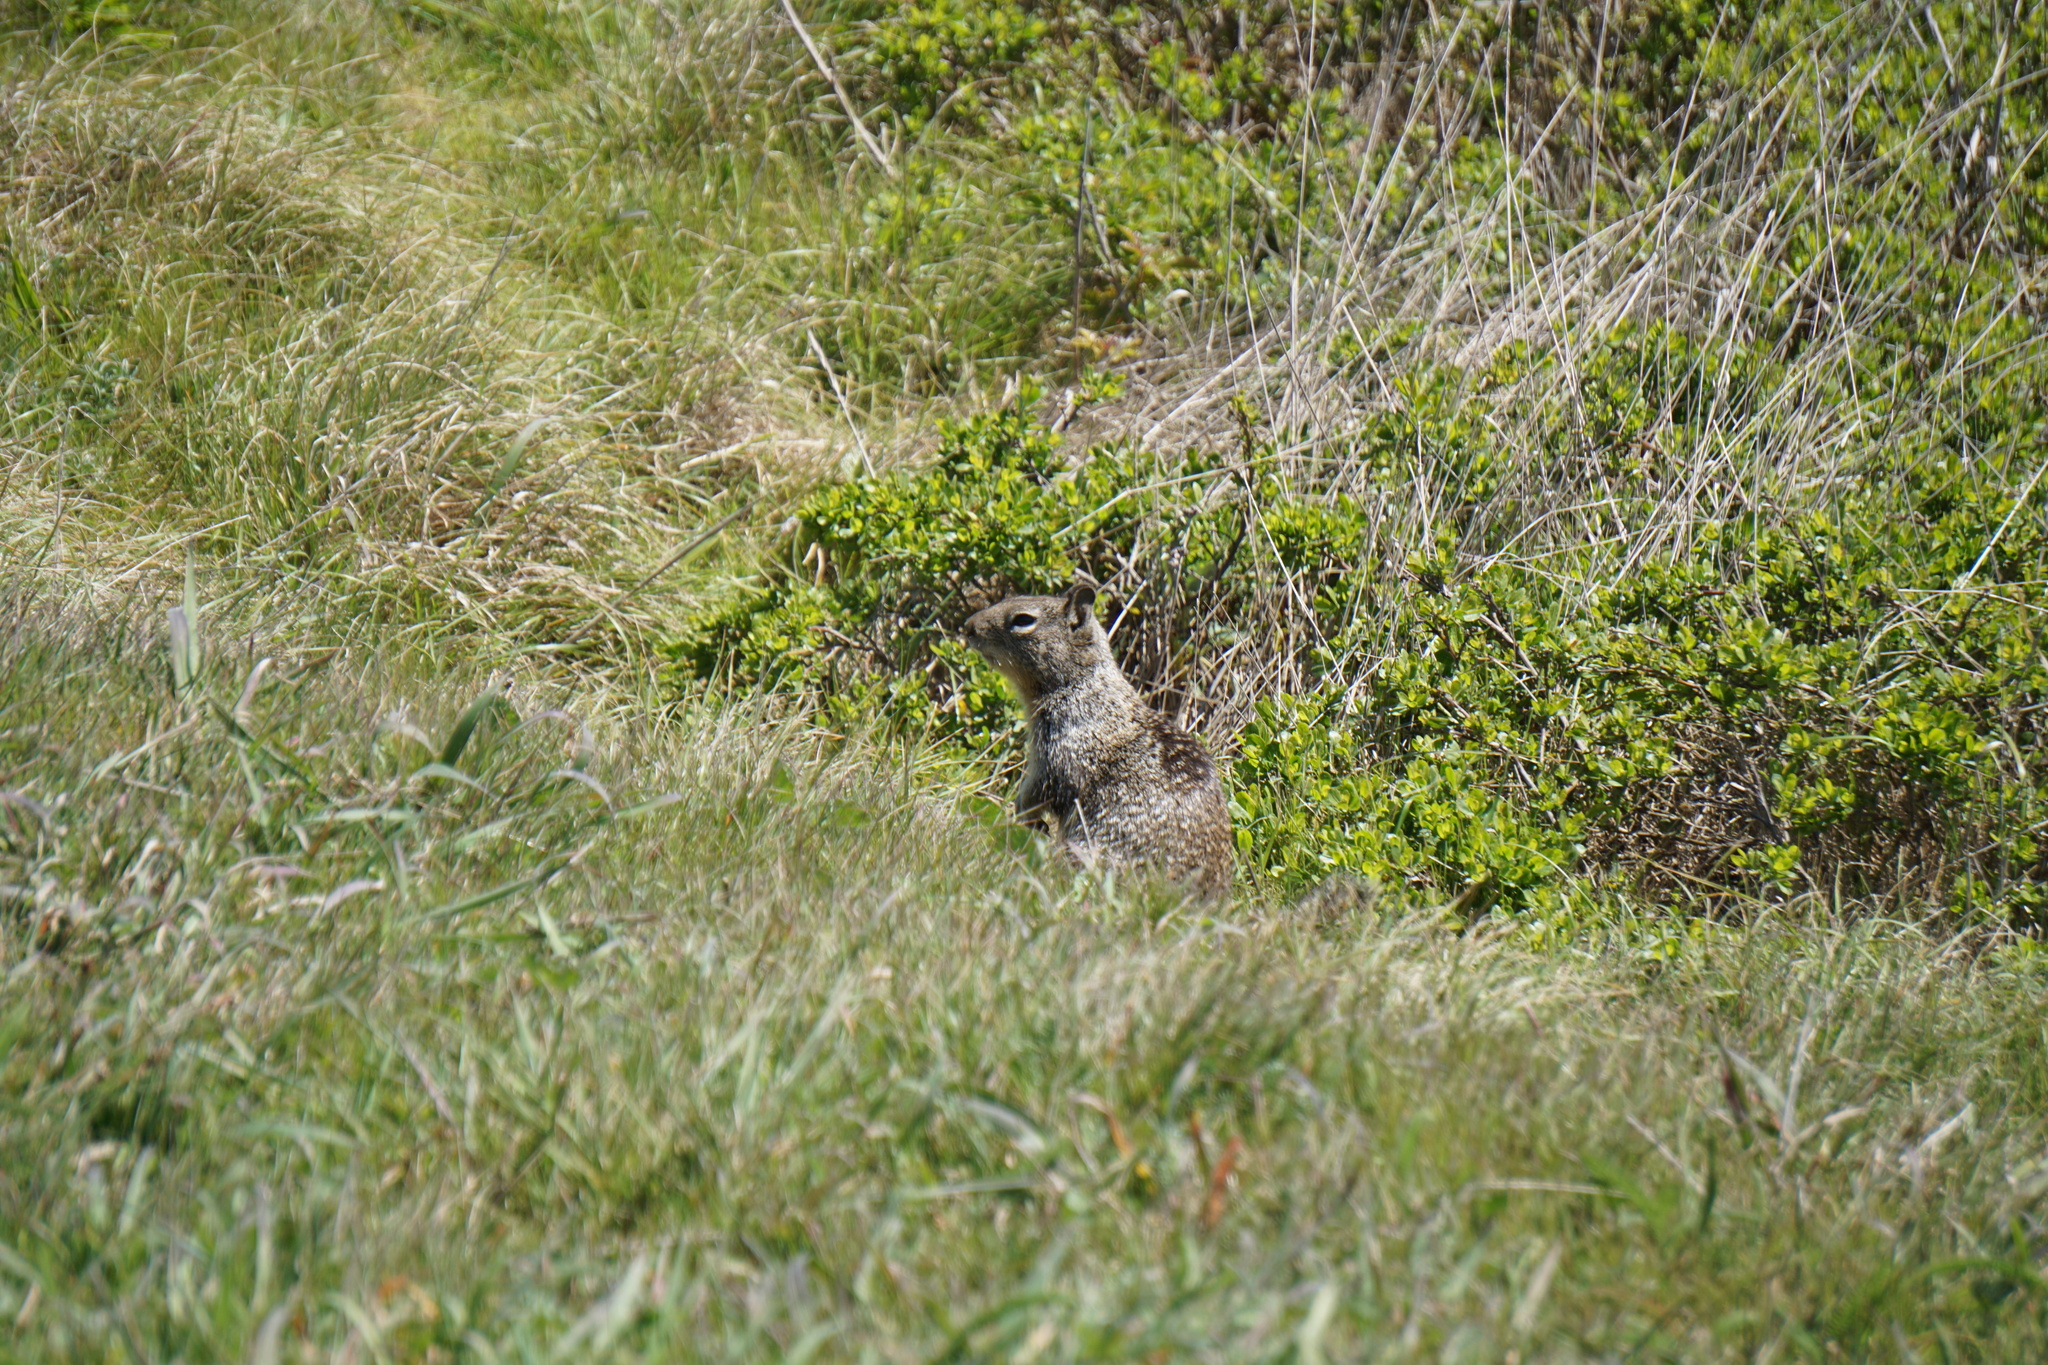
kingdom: Animalia
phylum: Chordata
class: Mammalia
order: Rodentia
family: Sciuridae
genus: Otospermophilus
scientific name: Otospermophilus beecheyi
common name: California ground squirrel
